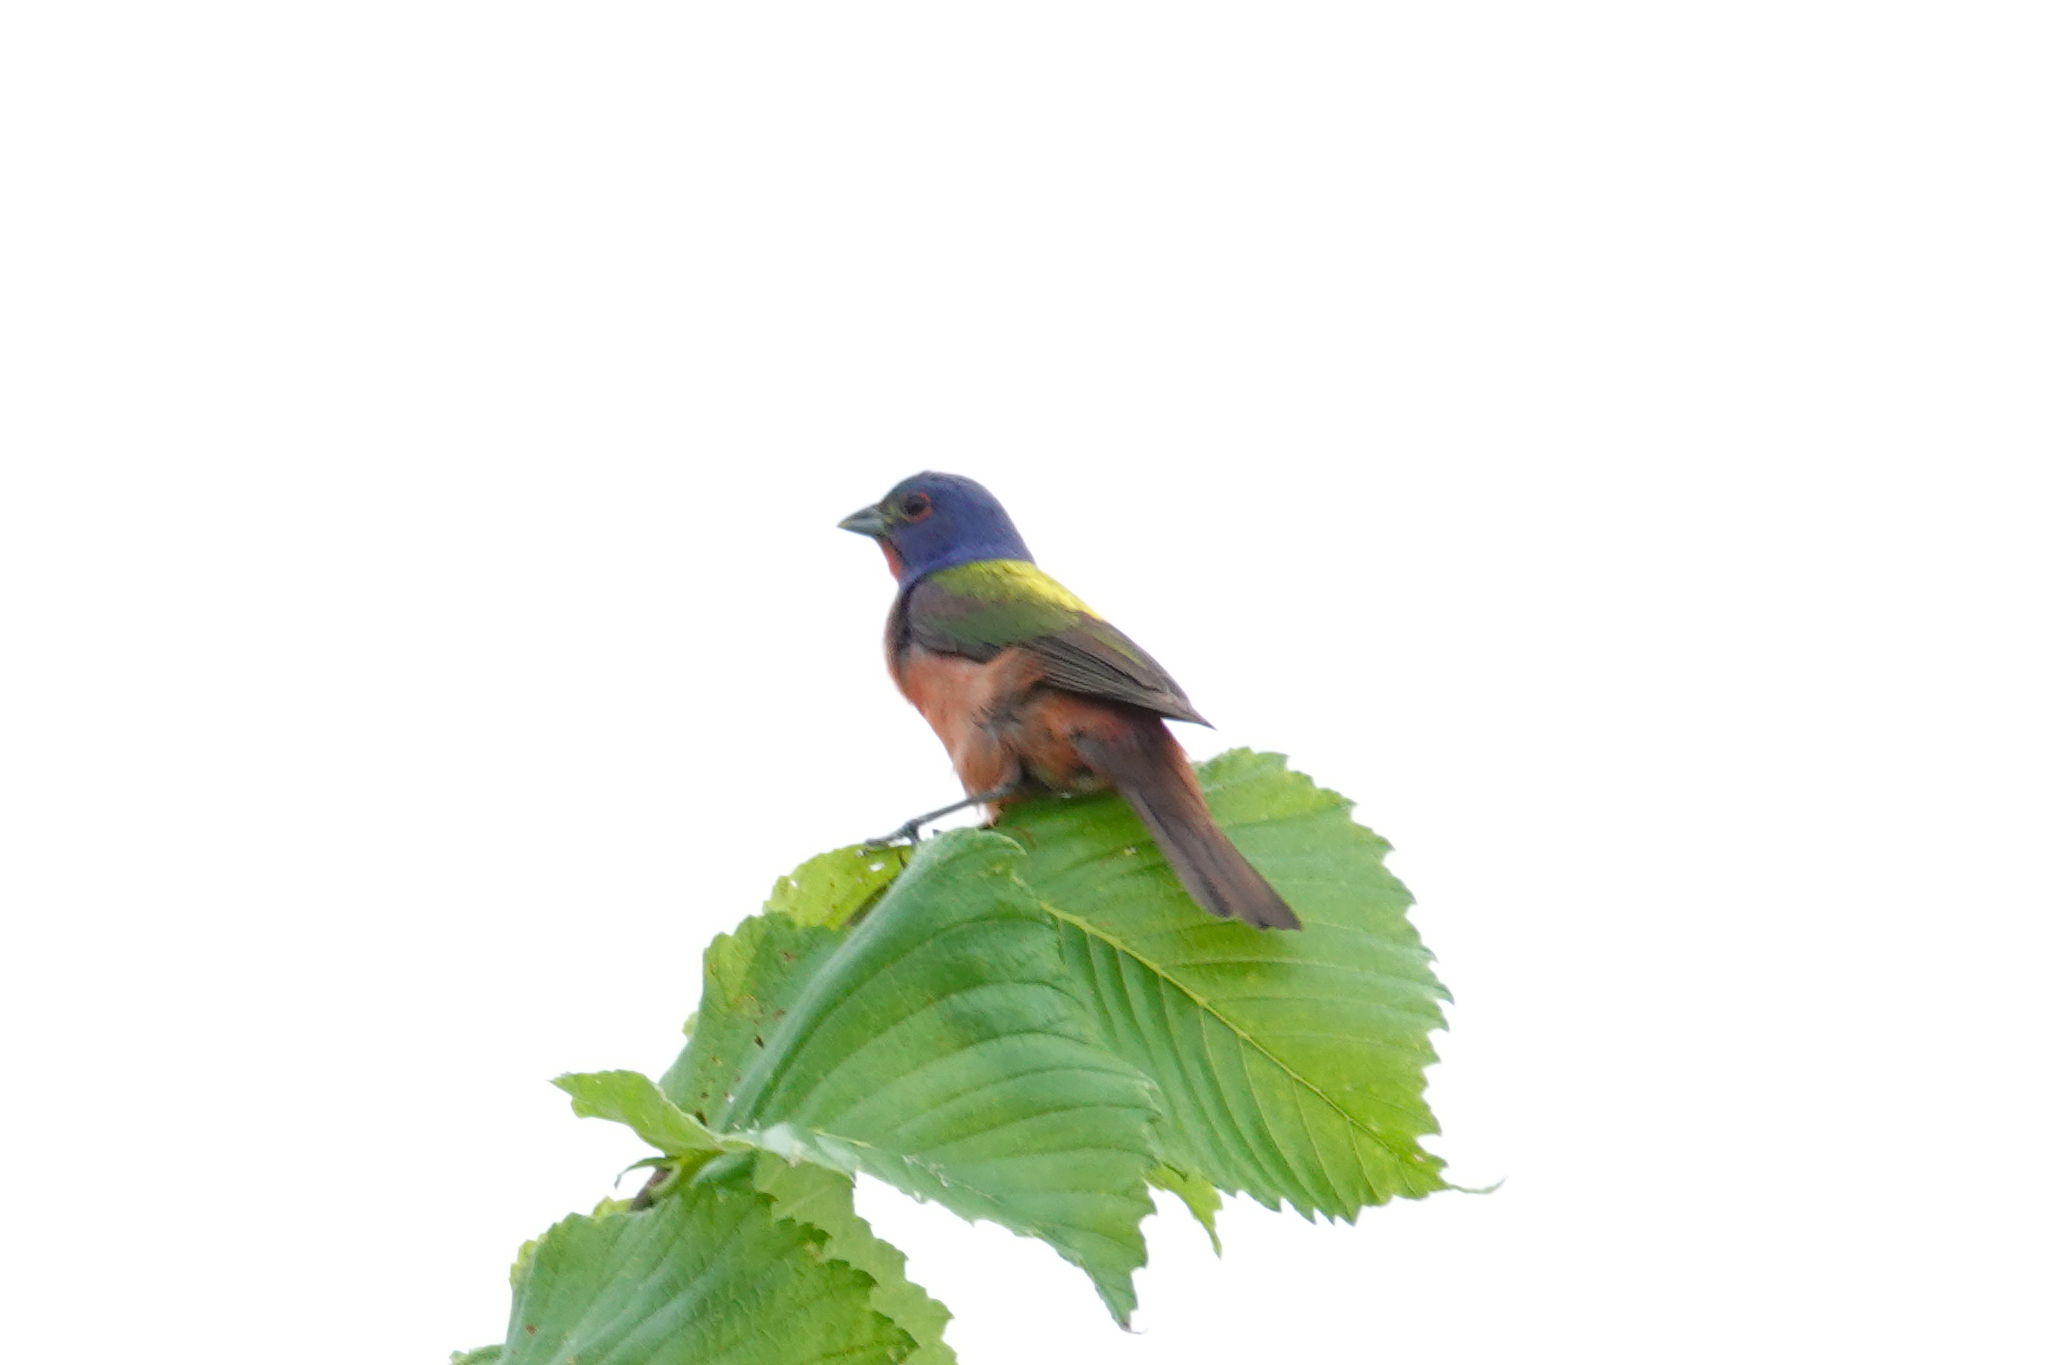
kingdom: Animalia
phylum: Chordata
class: Aves
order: Passeriformes
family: Cardinalidae
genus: Passerina
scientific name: Passerina ciris
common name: Painted bunting
